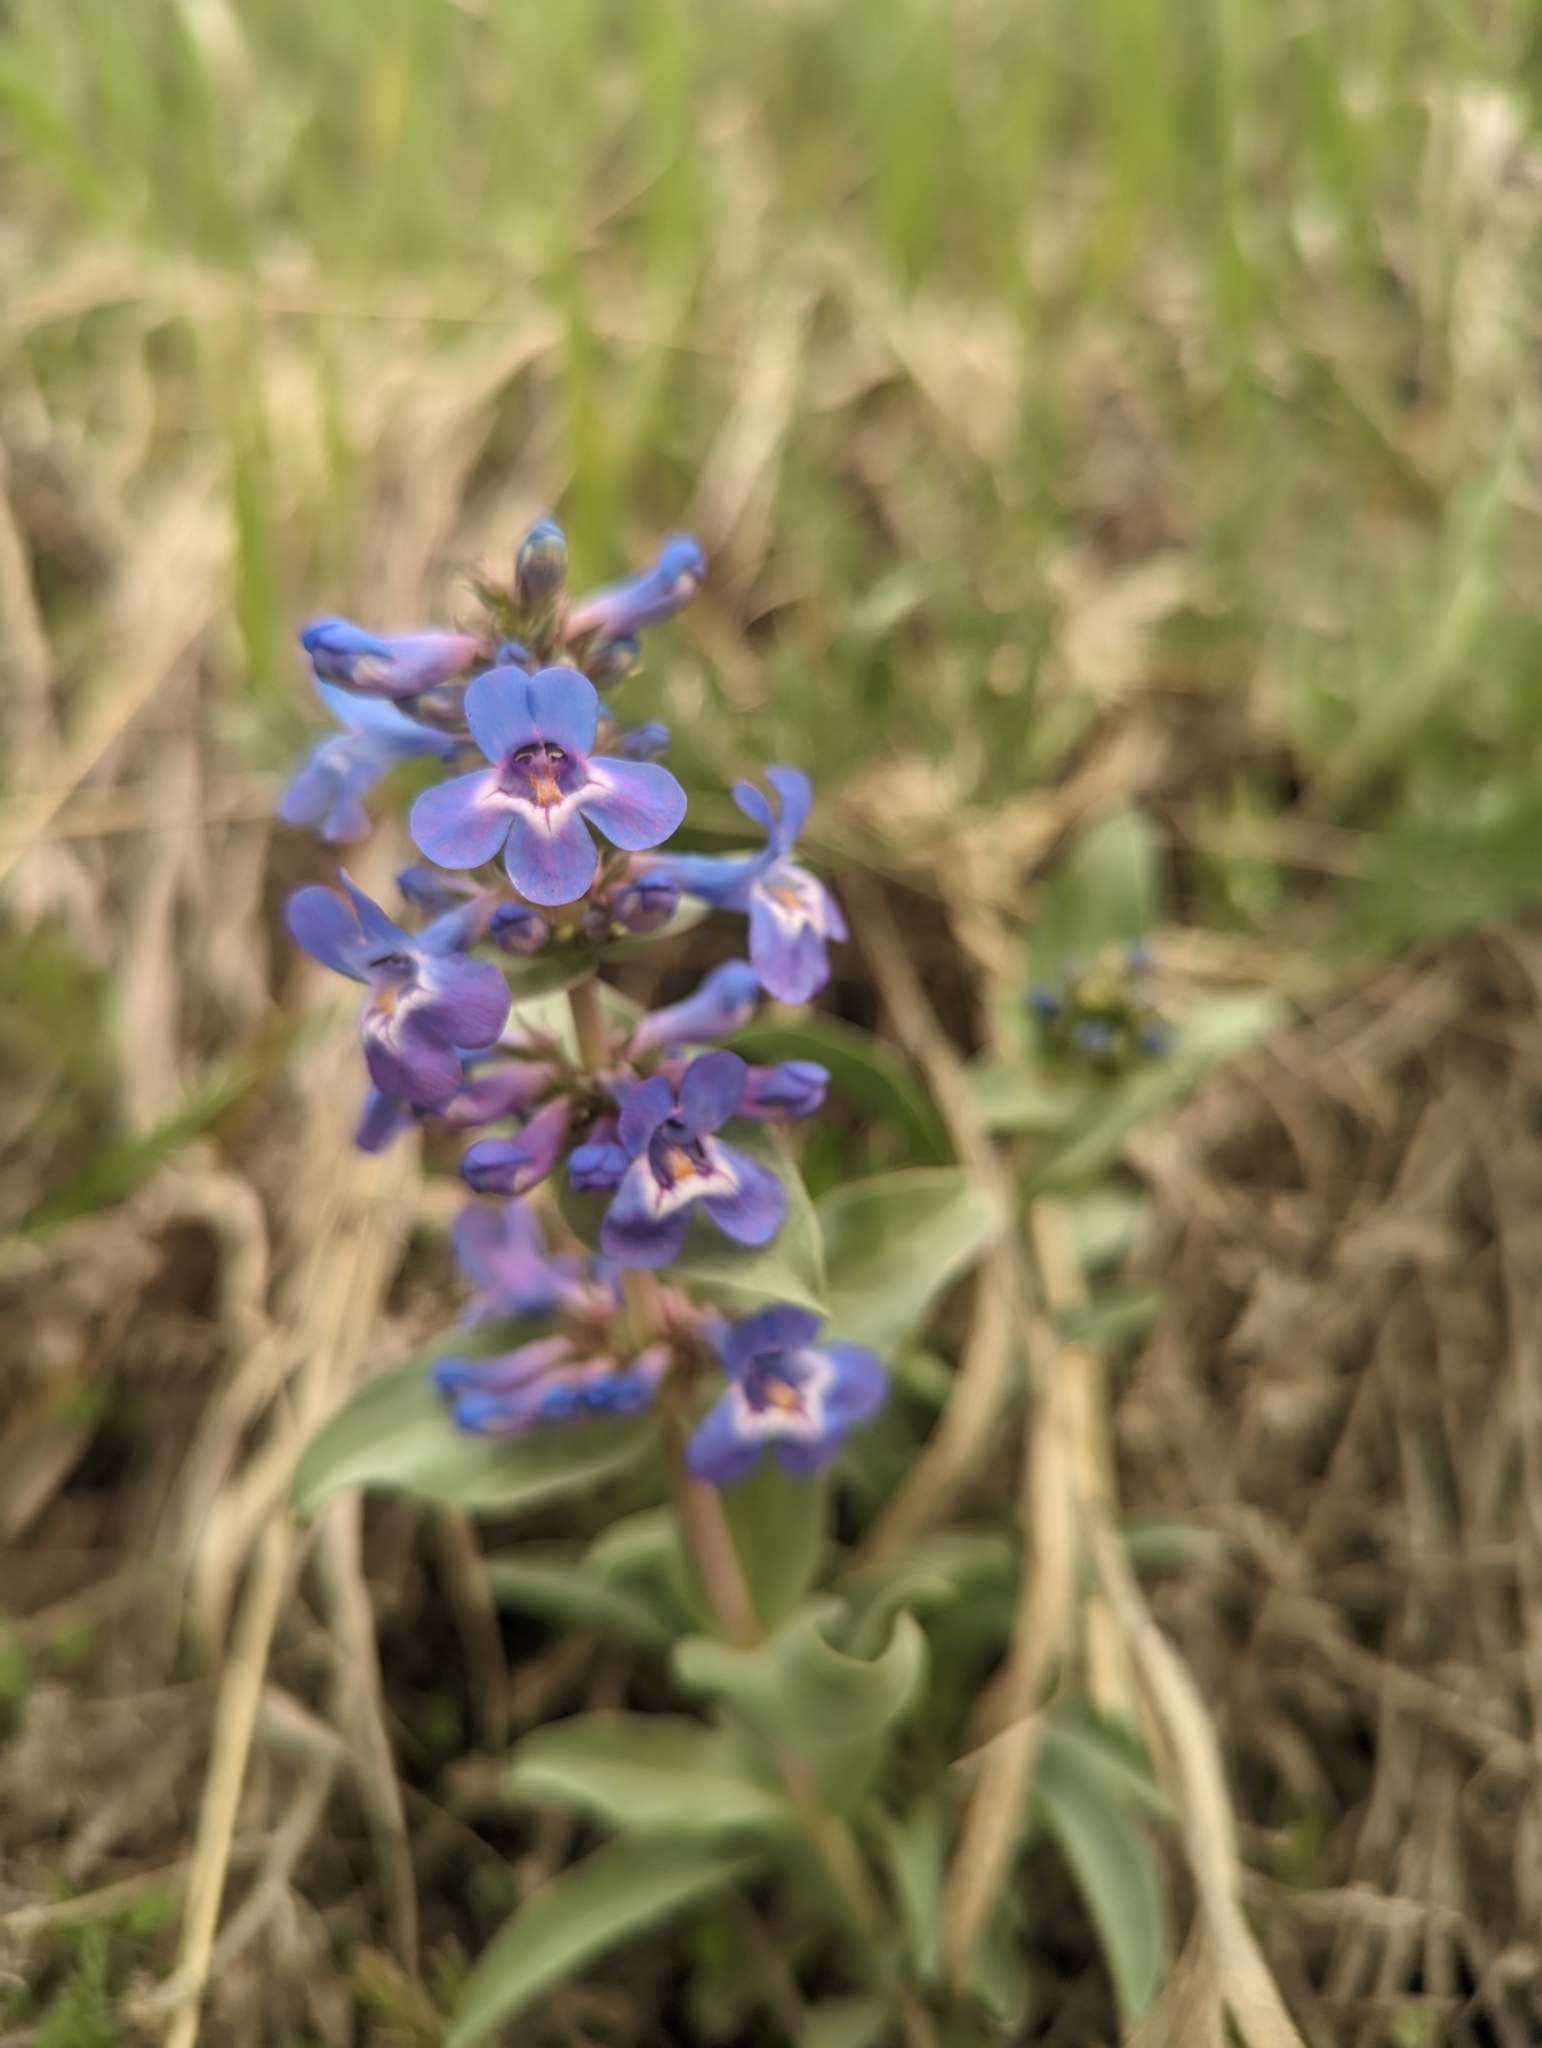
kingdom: Plantae
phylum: Tracheophyta
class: Magnoliopsida
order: Lamiales
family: Plantaginaceae
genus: Penstemon
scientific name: Penstemon nitidus
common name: Shining penstemon
